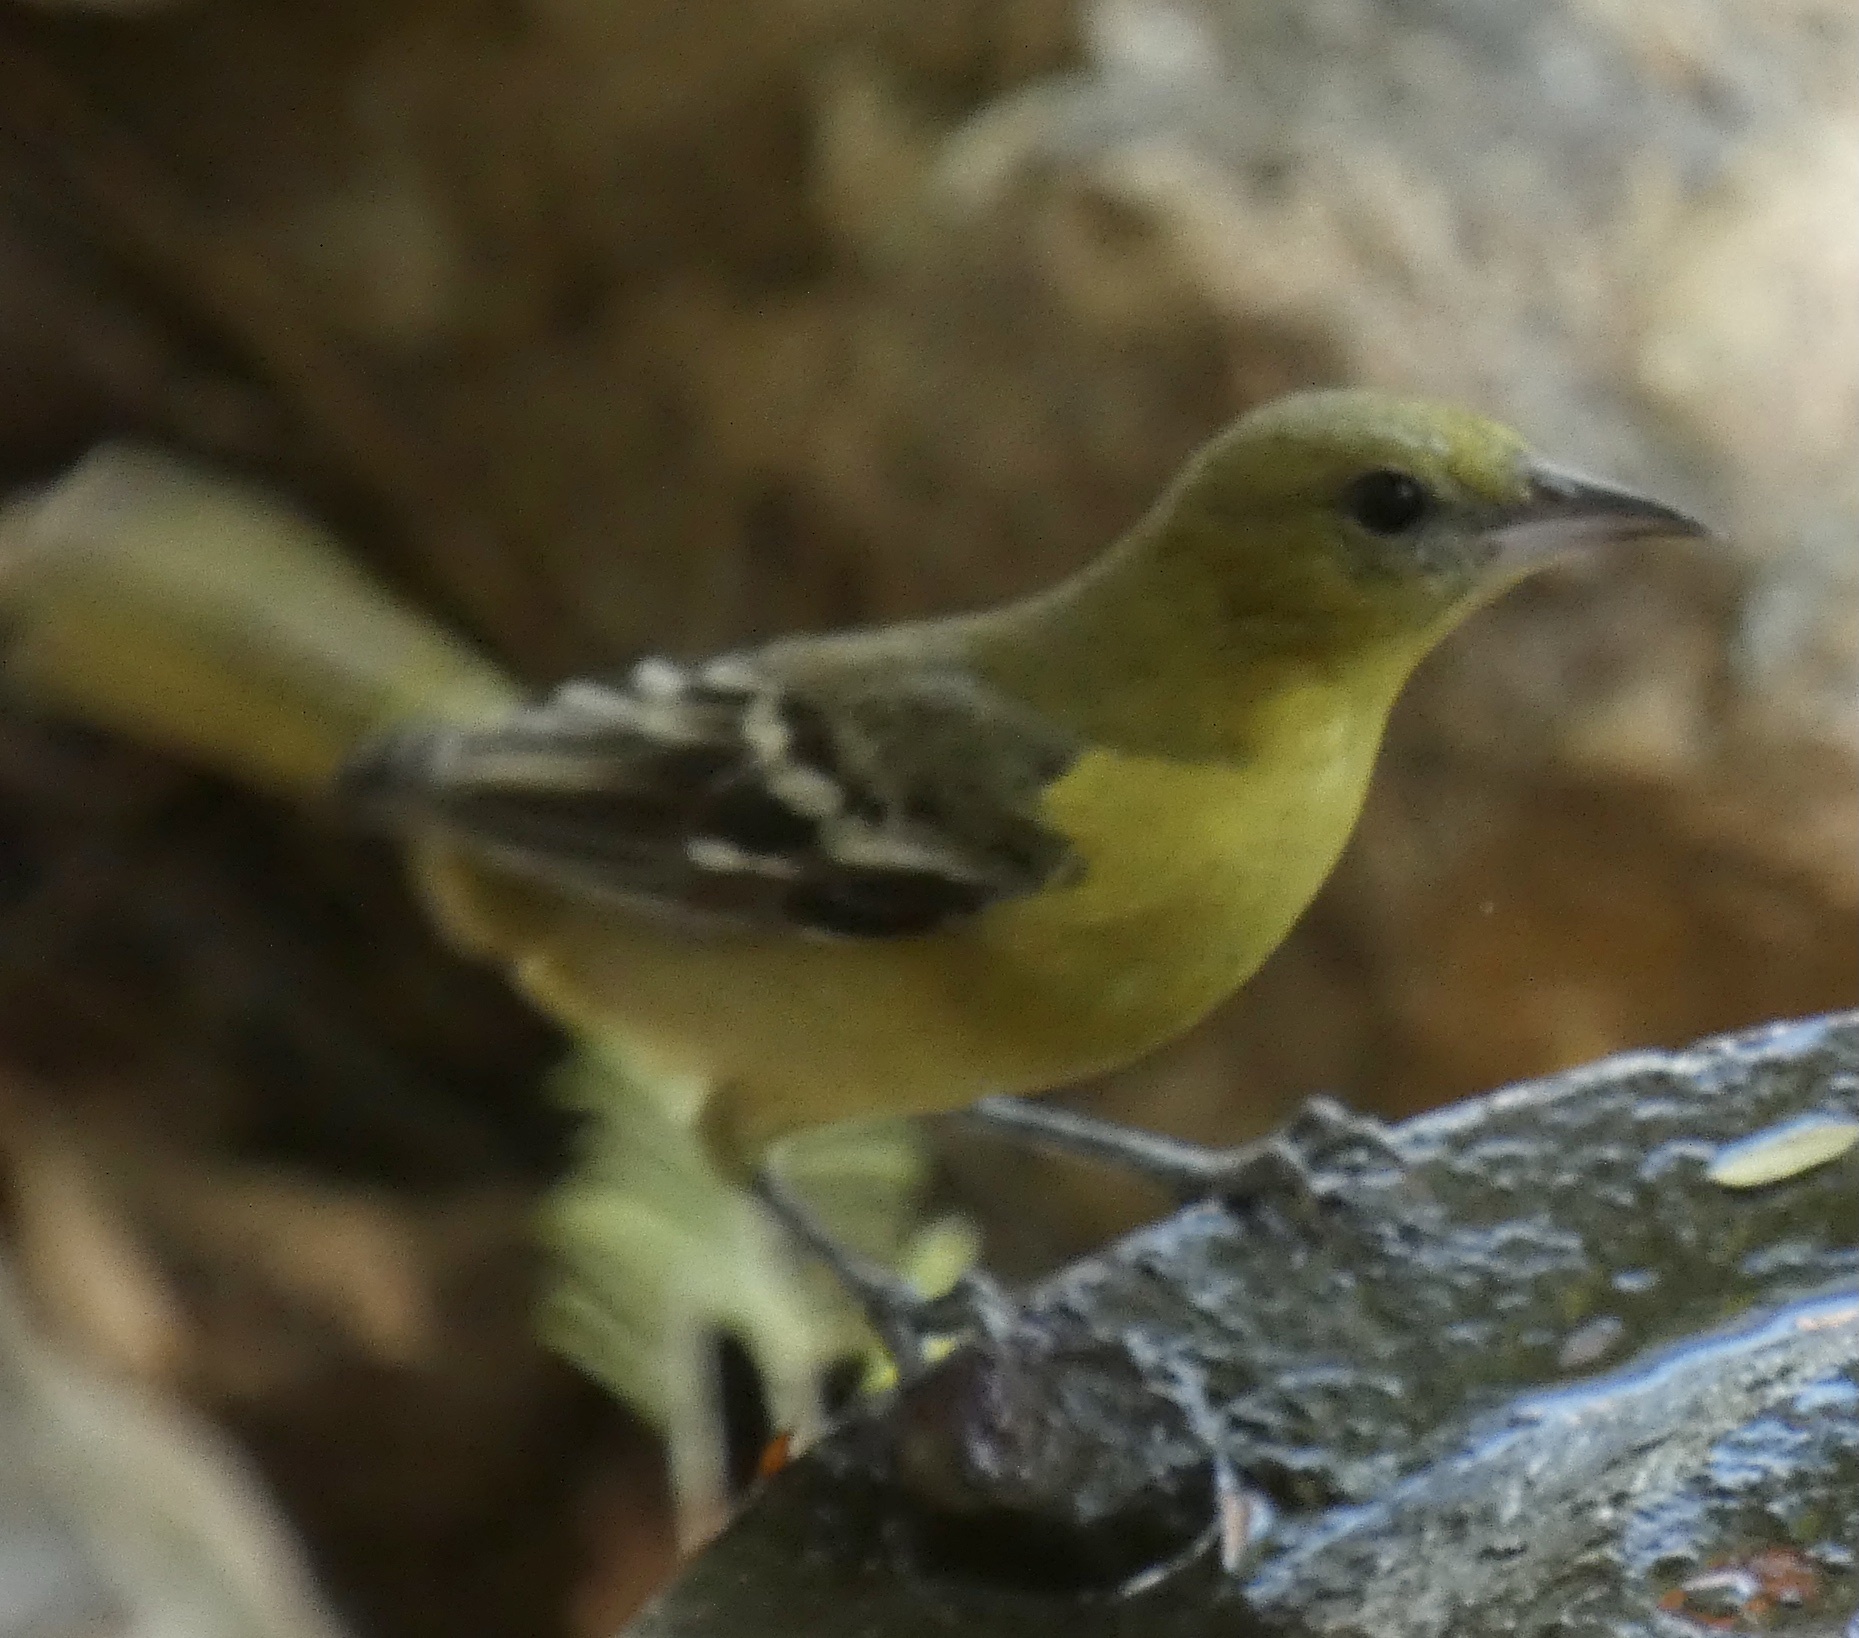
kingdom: Animalia
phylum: Chordata
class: Aves
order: Passeriformes
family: Icteridae
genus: Icterus
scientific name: Icterus spurius
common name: Orchard oriole
